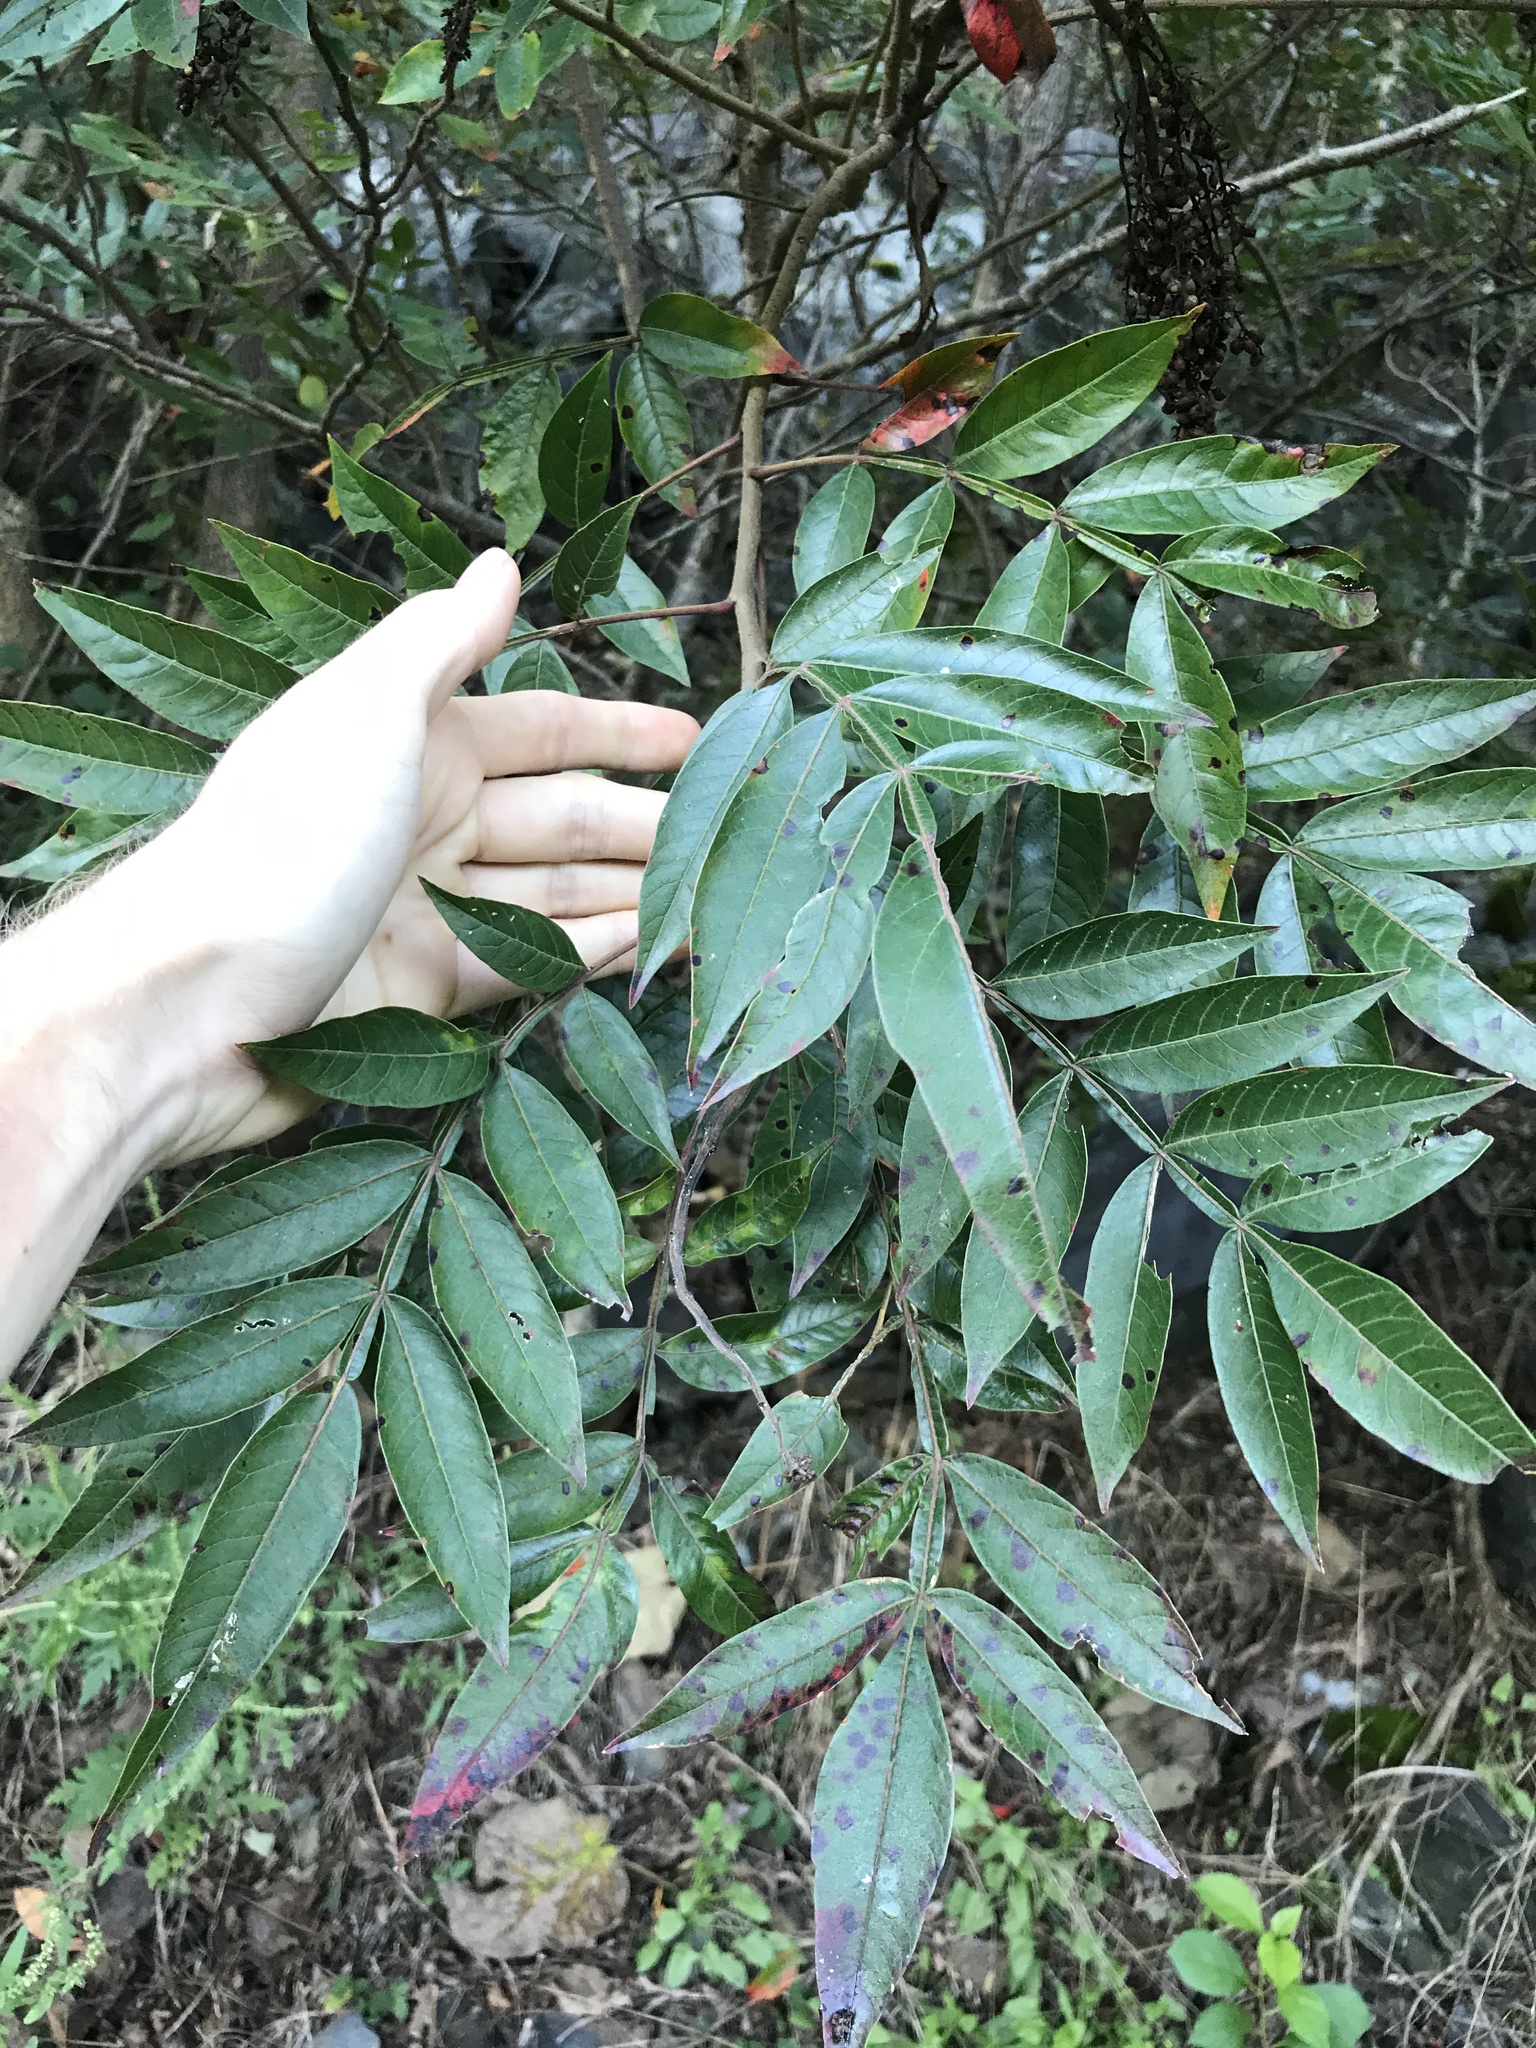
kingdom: Plantae
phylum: Tracheophyta
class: Magnoliopsida
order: Sapindales
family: Anacardiaceae
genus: Rhus
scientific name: Rhus copallina
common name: Shining sumac
